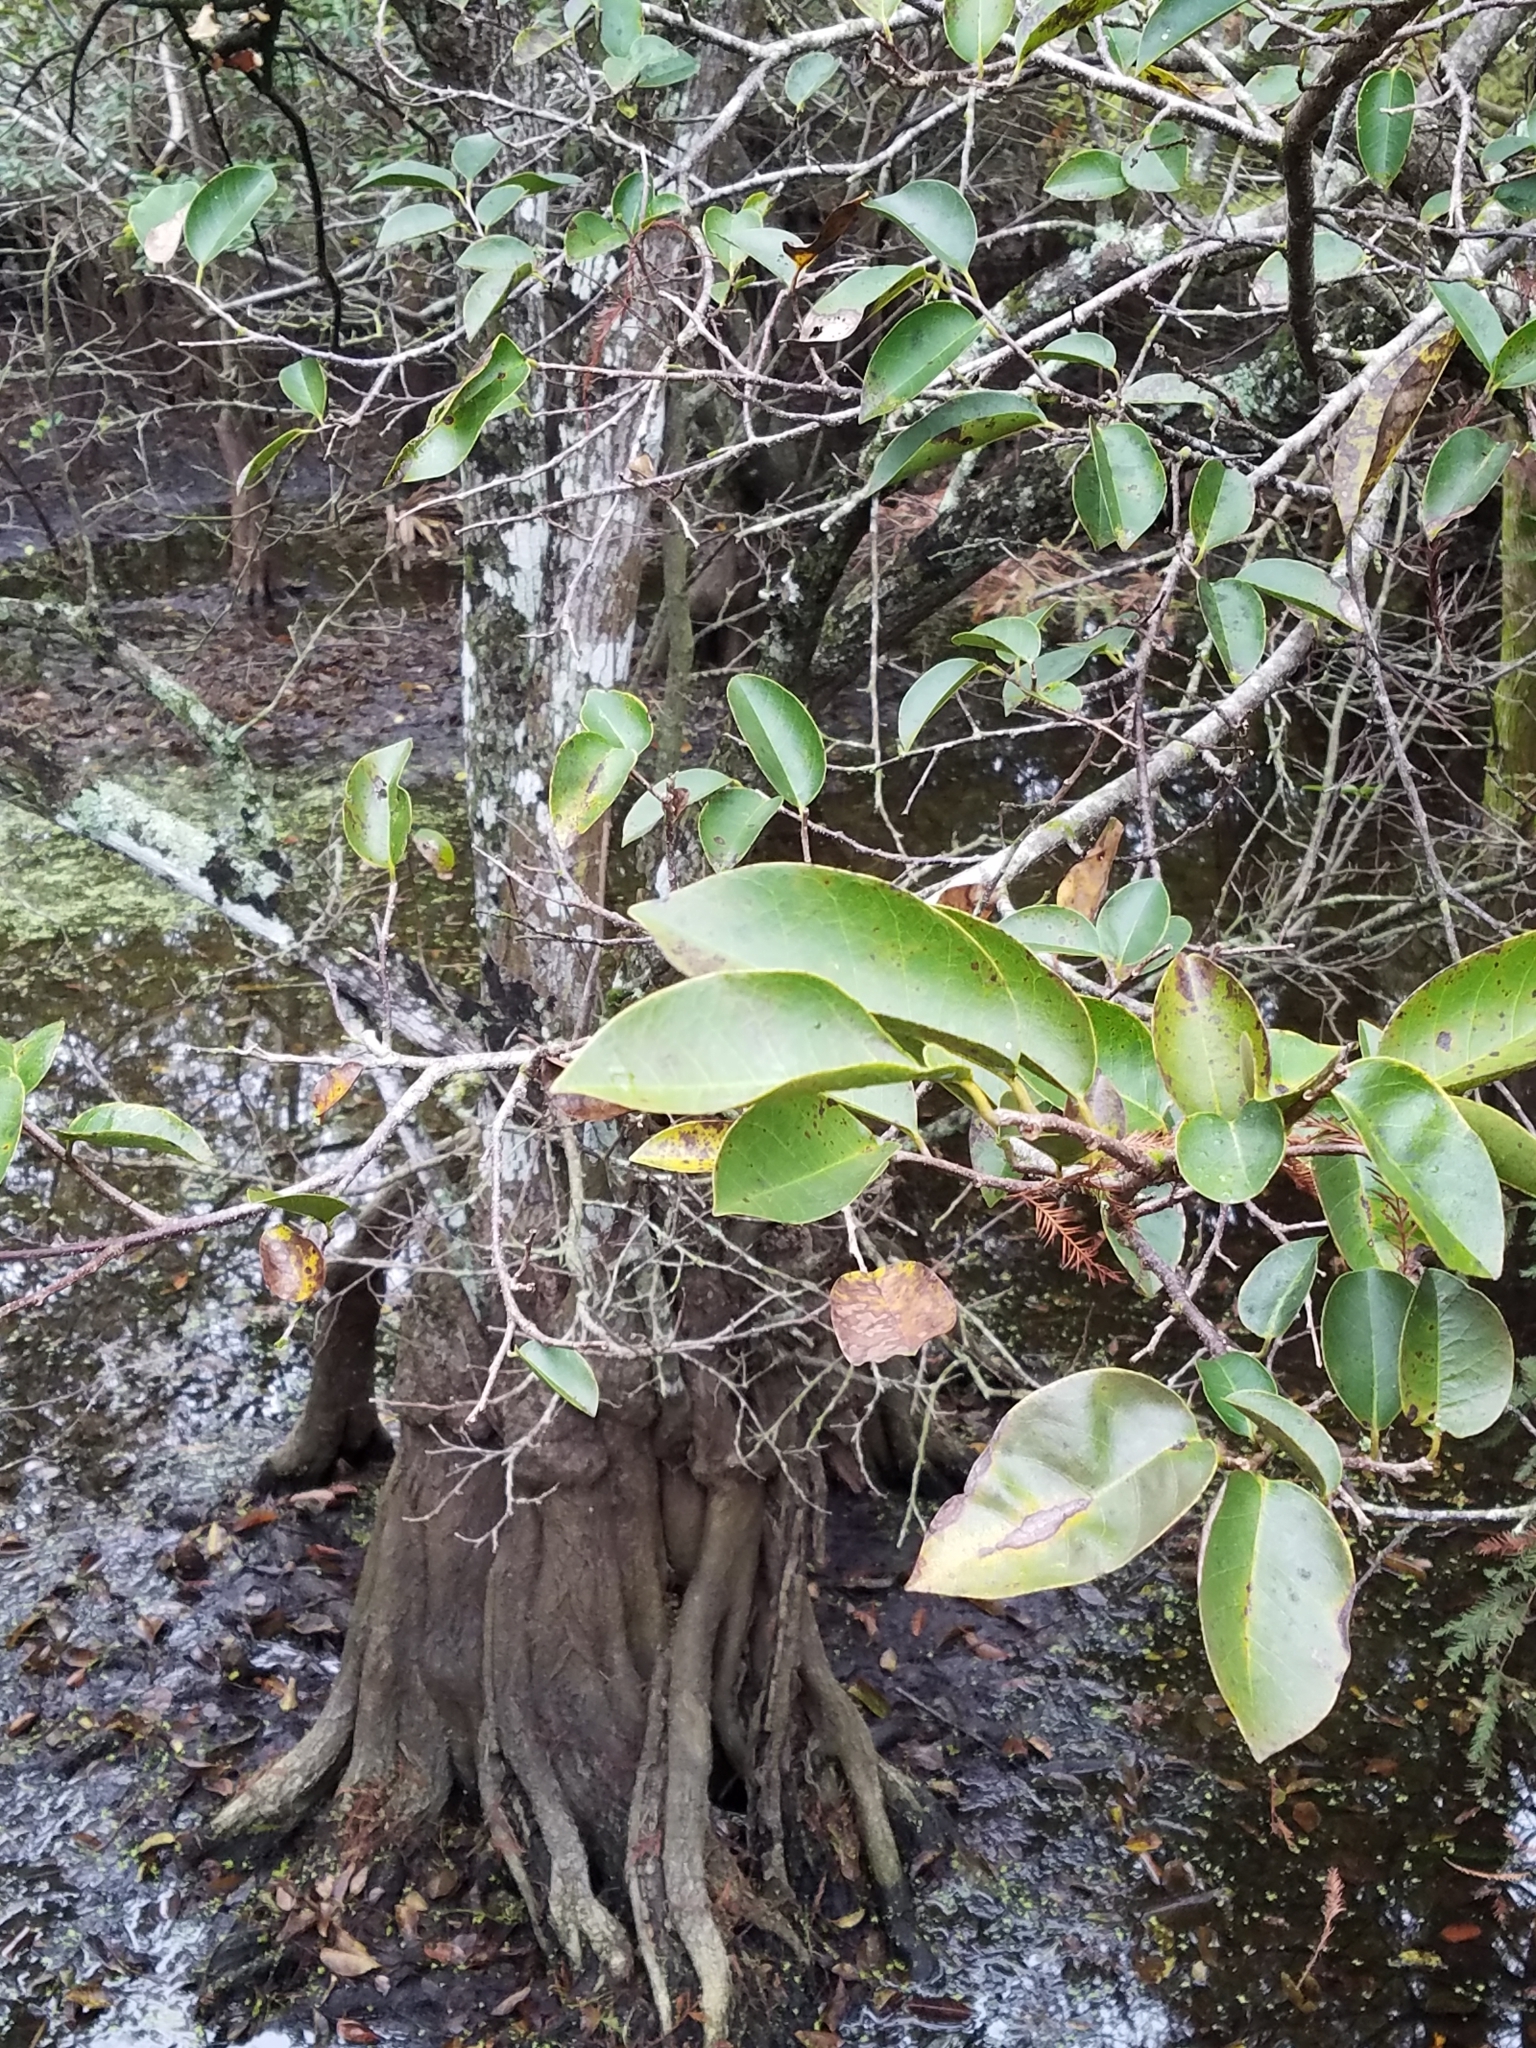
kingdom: Plantae
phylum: Tracheophyta
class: Magnoliopsida
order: Magnoliales
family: Annonaceae
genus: Annona
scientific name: Annona glabra
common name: Monkey apple
